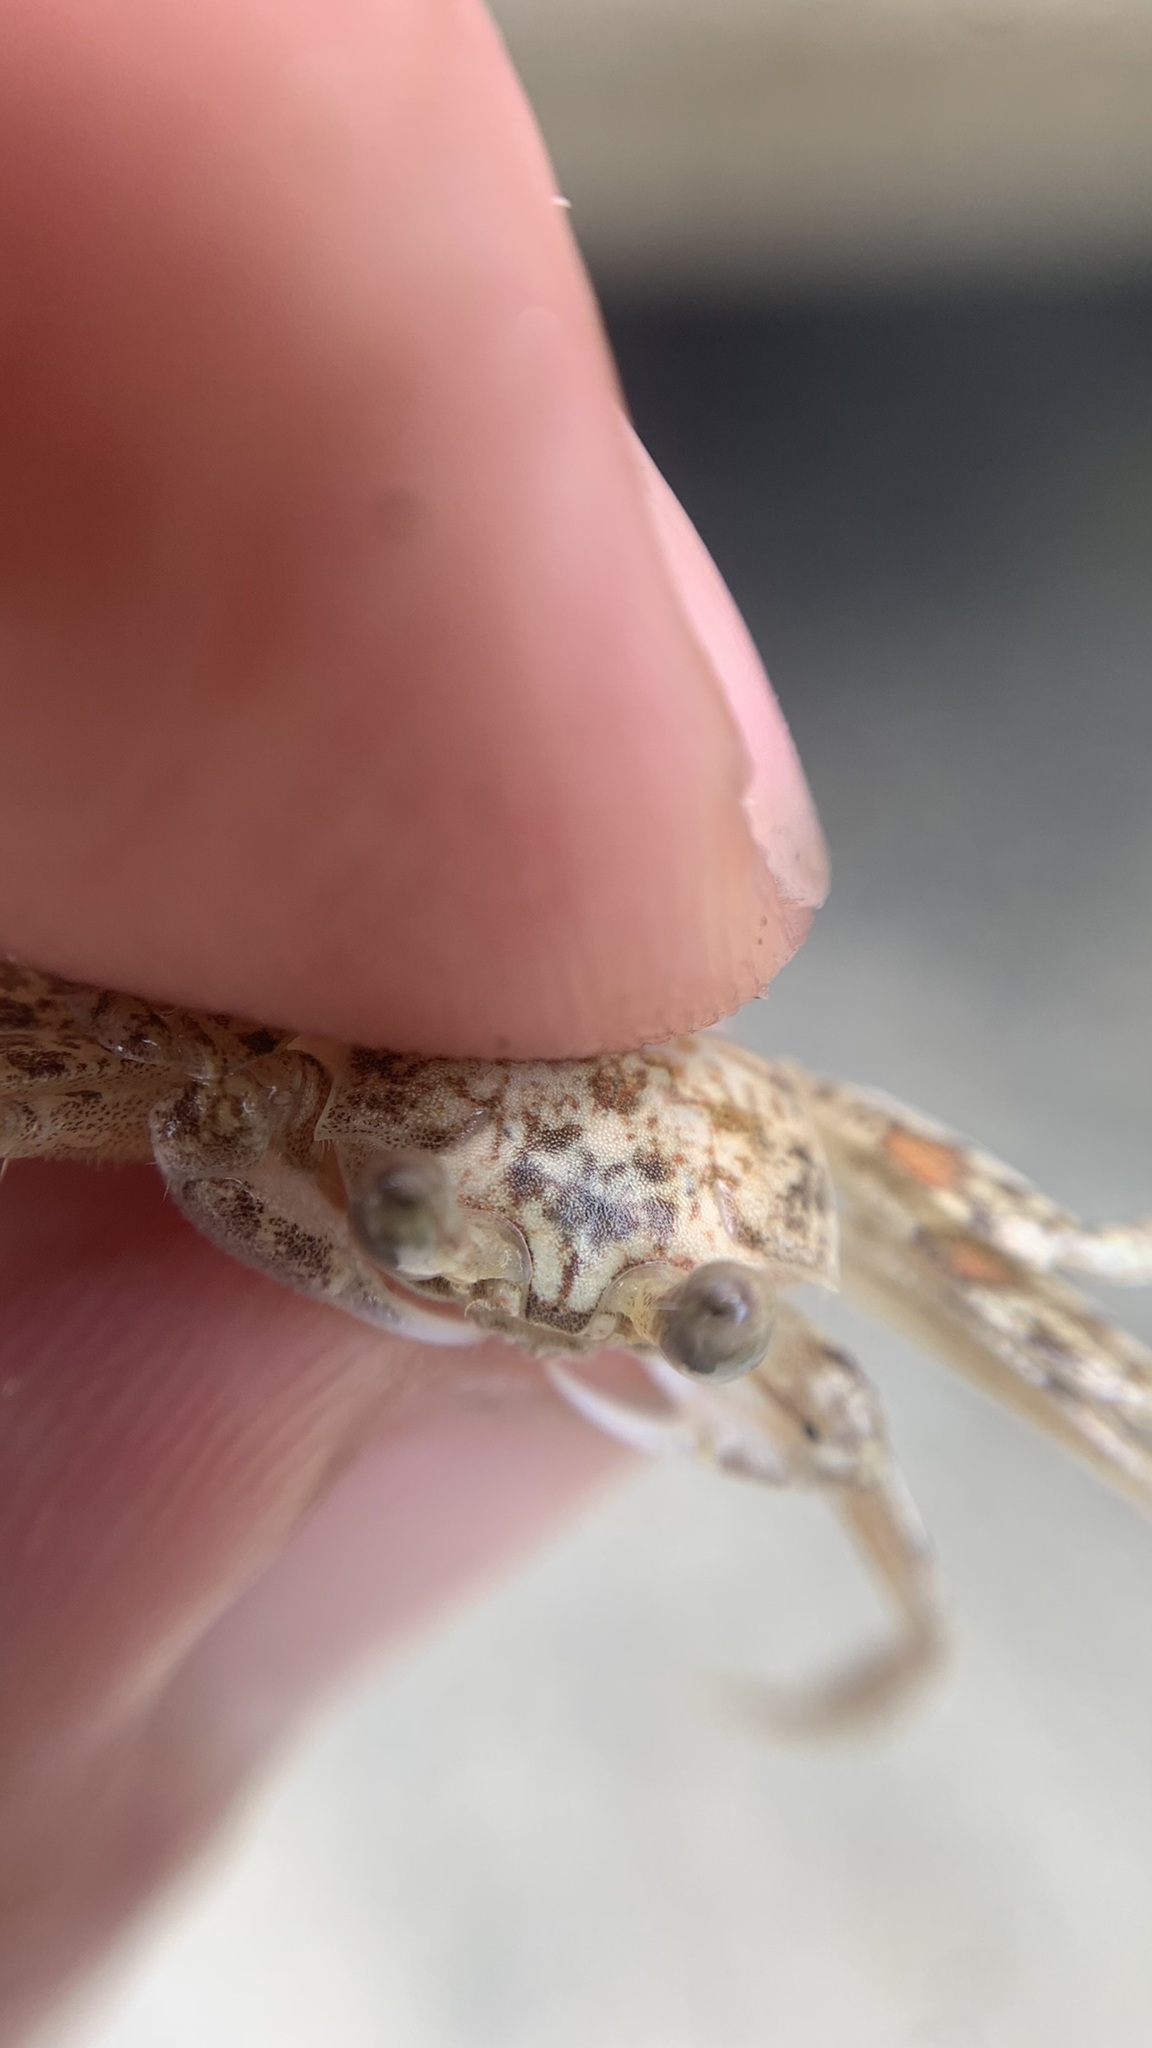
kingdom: Animalia
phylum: Arthropoda
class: Malacostraca
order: Decapoda
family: Ocypodidae
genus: Ocypode
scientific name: Ocypode quadrata
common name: Ghost crab
